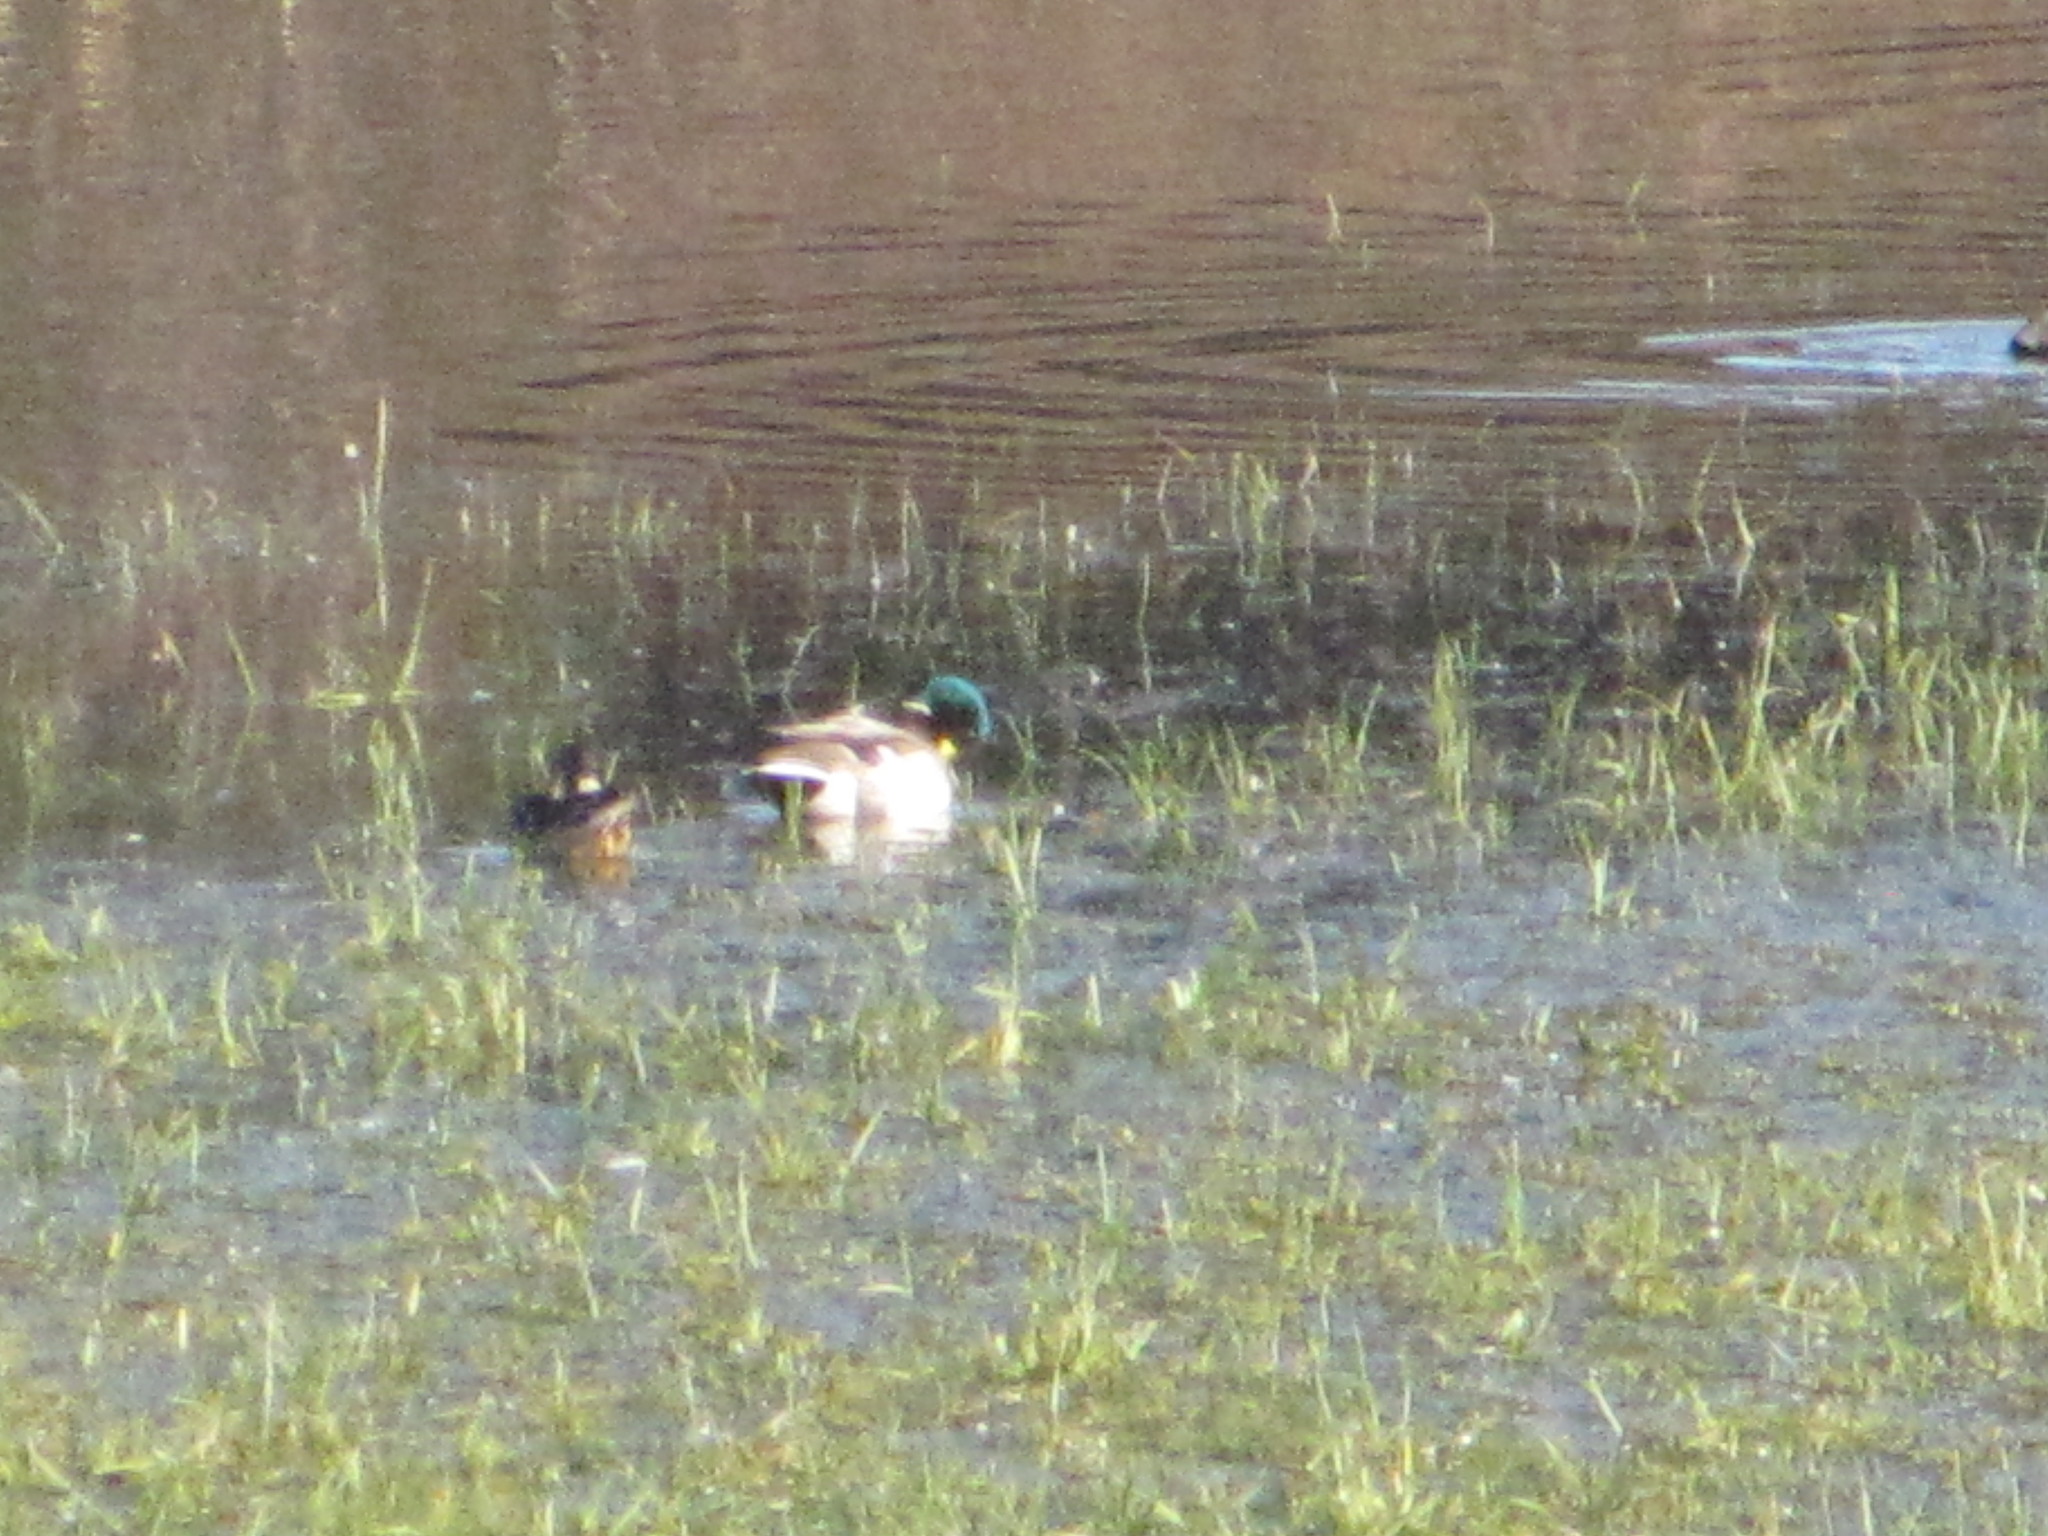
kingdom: Animalia
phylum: Chordata
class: Aves
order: Anseriformes
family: Anatidae
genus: Anas
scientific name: Anas platyrhynchos
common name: Mallard
